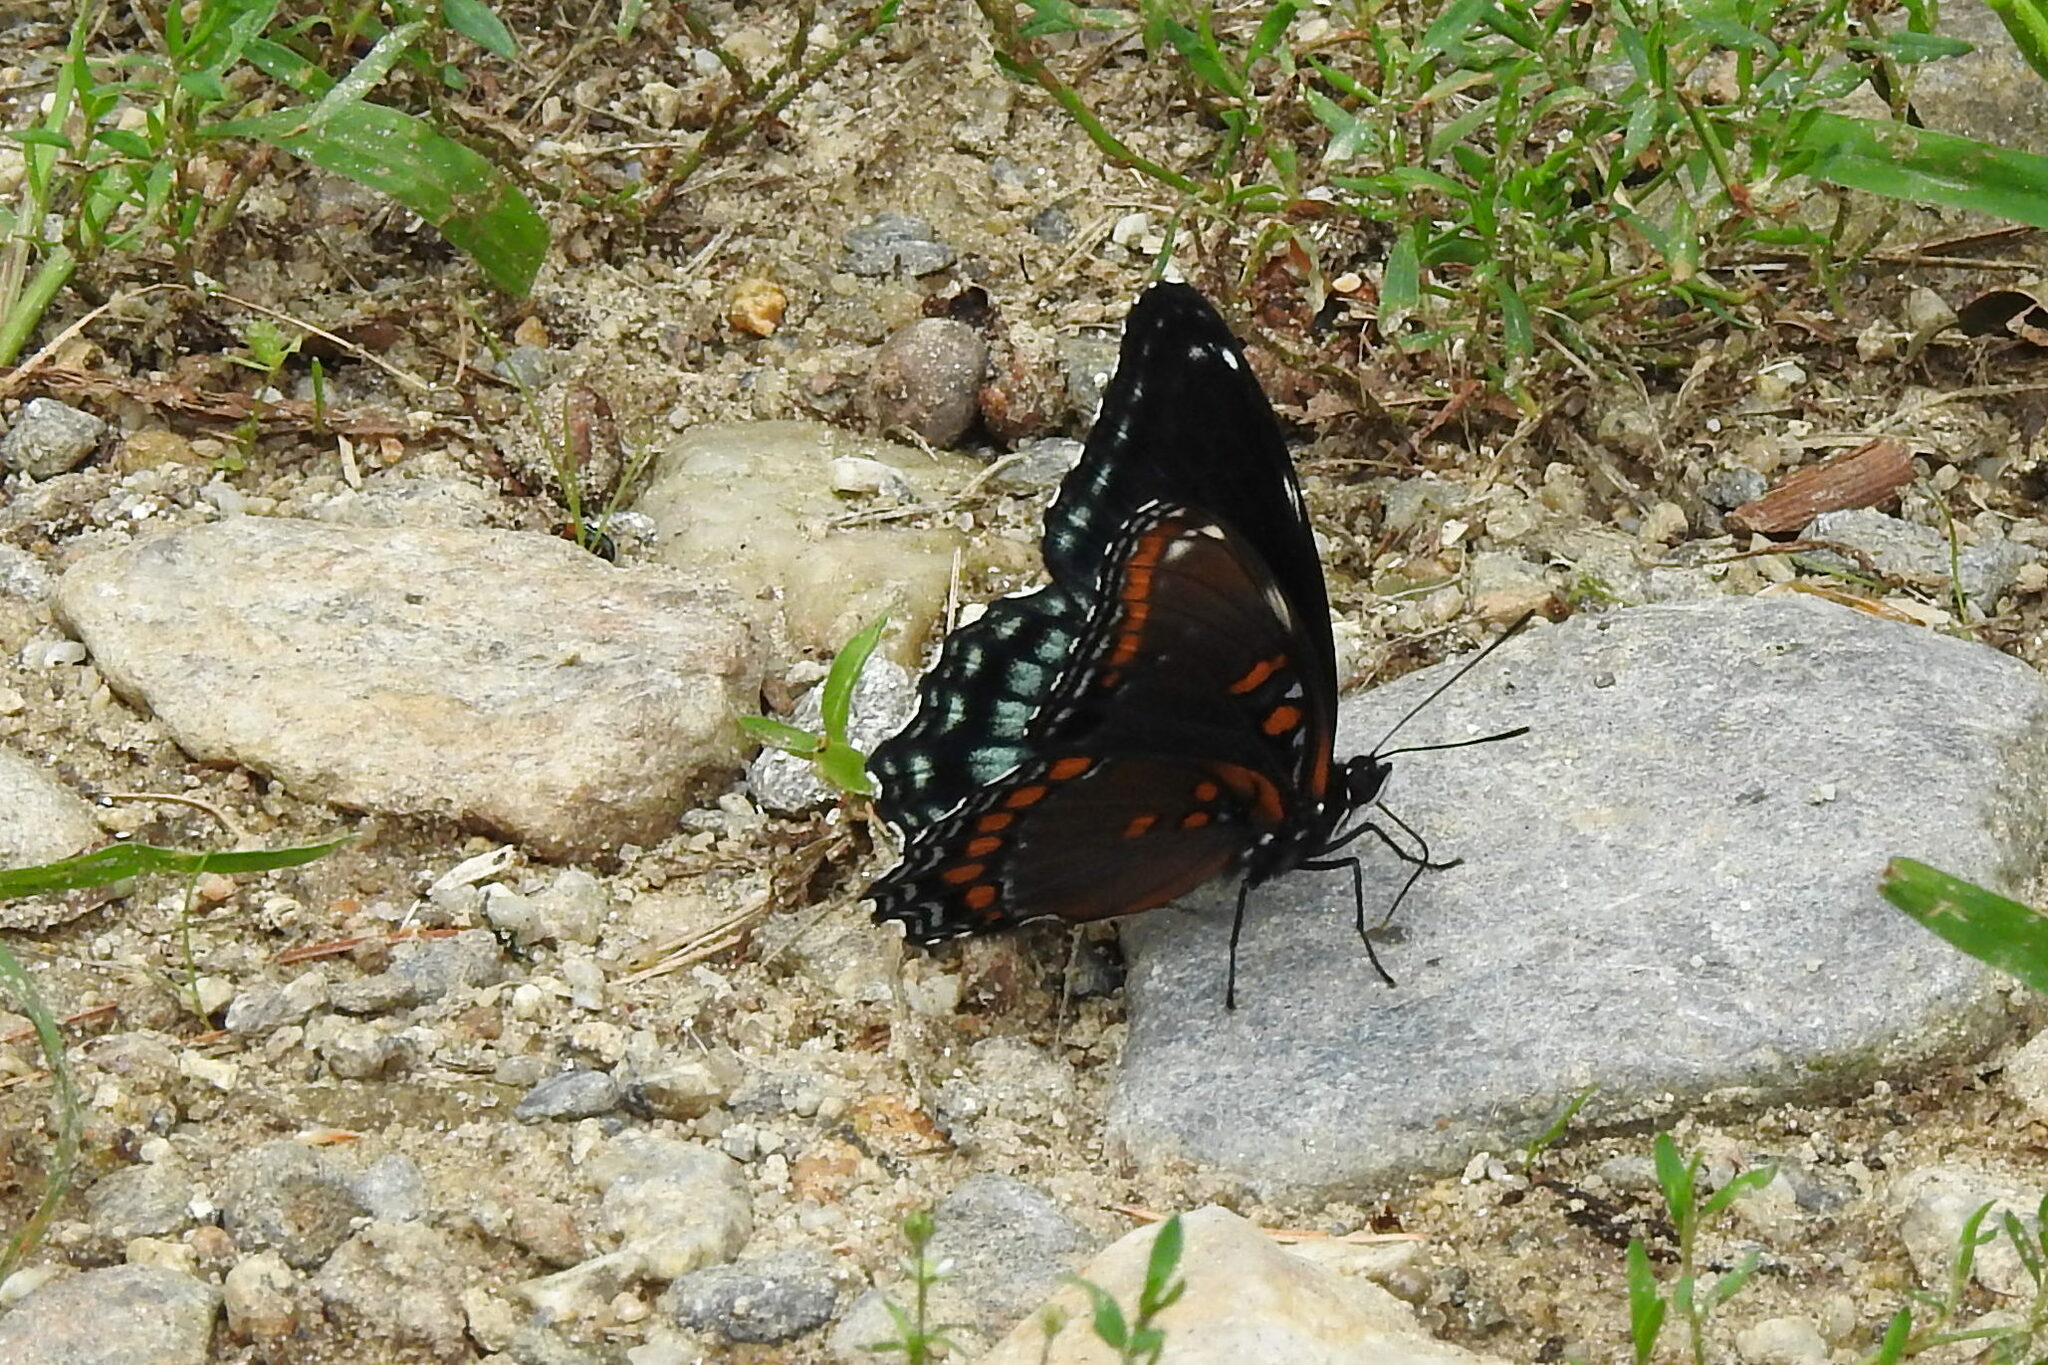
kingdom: Animalia
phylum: Arthropoda
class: Insecta
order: Lepidoptera
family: Nymphalidae
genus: Limenitis
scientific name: Limenitis arthemis
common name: Red-spotted admiral
